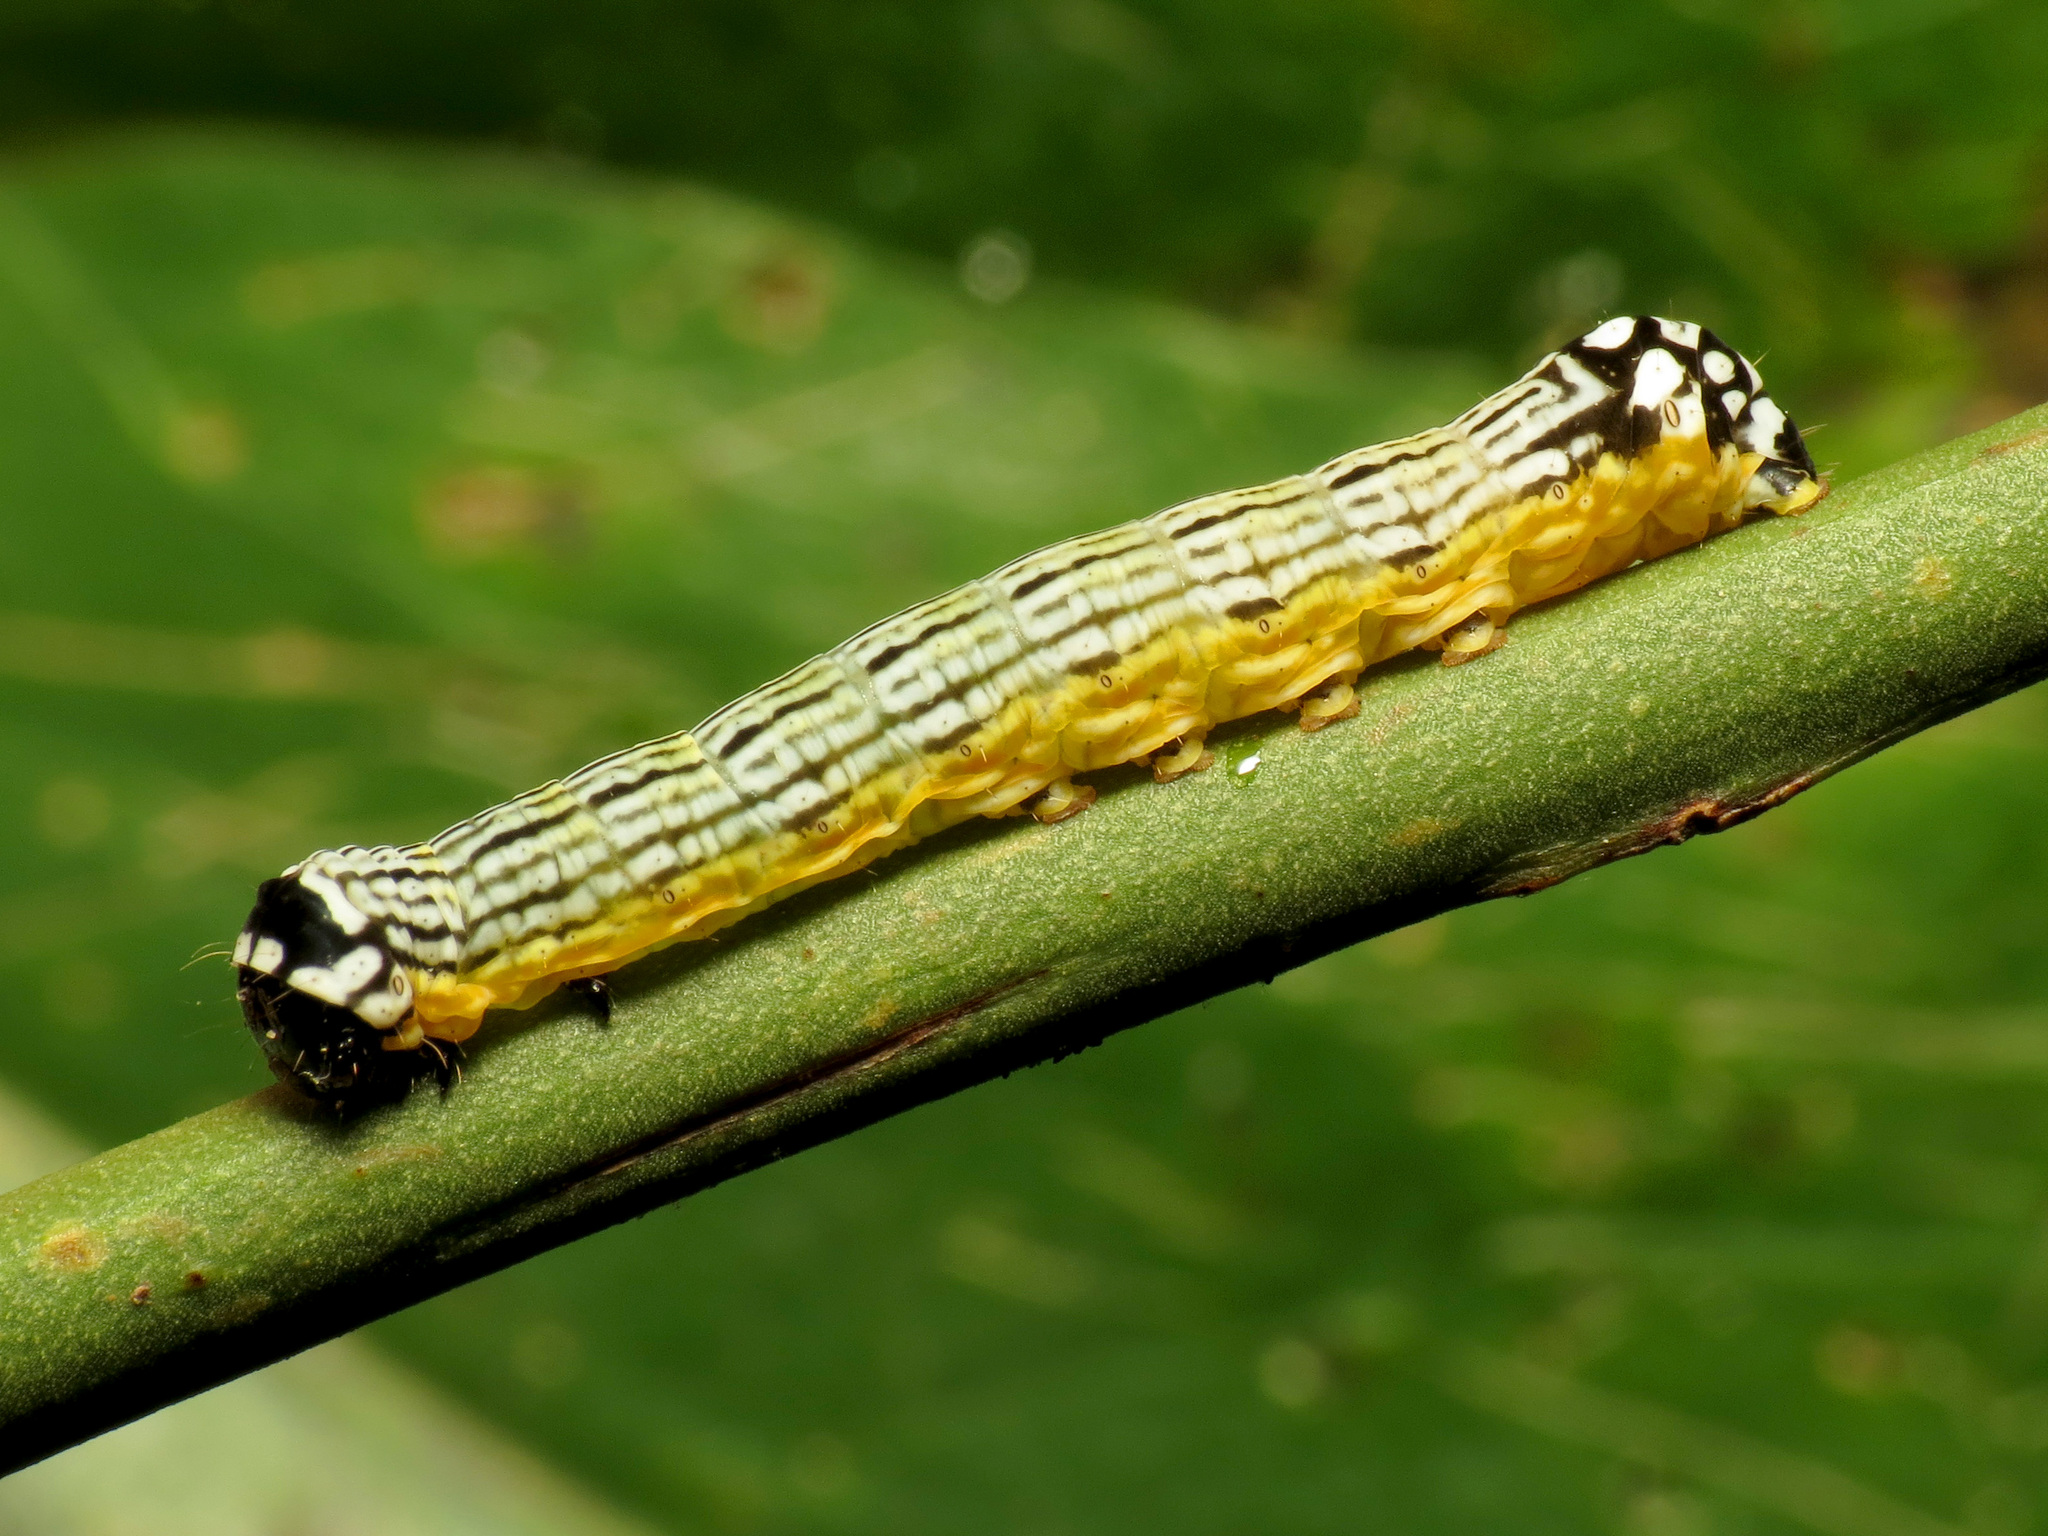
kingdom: Animalia
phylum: Arthropoda
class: Insecta
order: Lepidoptera
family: Noctuidae
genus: Phosphila
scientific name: Phosphila turbulenta
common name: Turbulent phosphila moth
